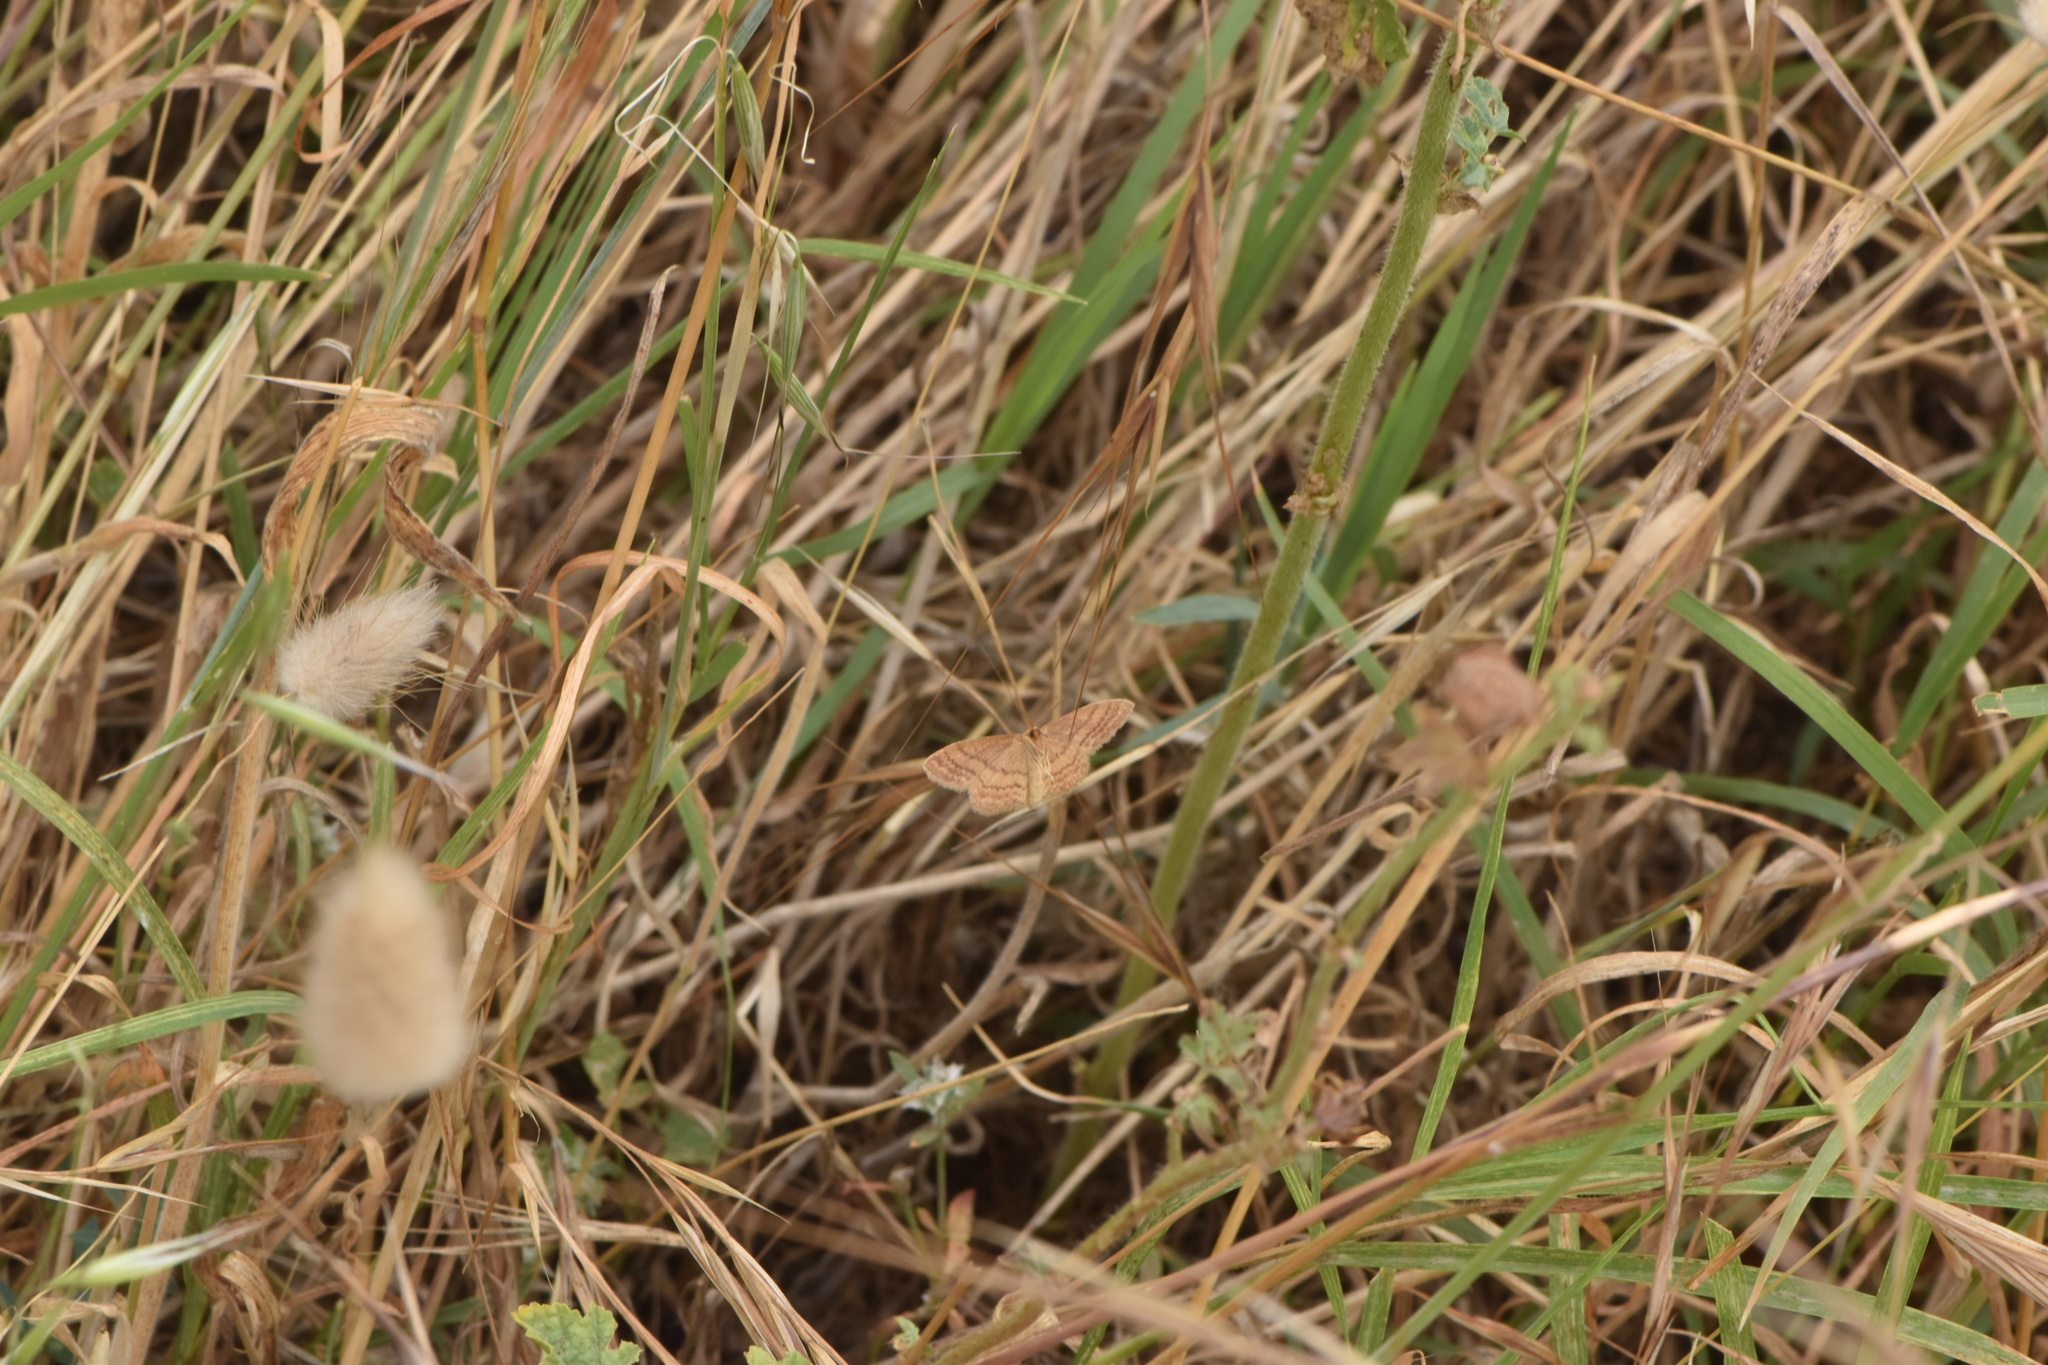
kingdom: Animalia
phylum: Arthropoda
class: Insecta
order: Lepidoptera
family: Geometridae
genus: Idaea
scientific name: Idaea ochrata
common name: Bright wave
